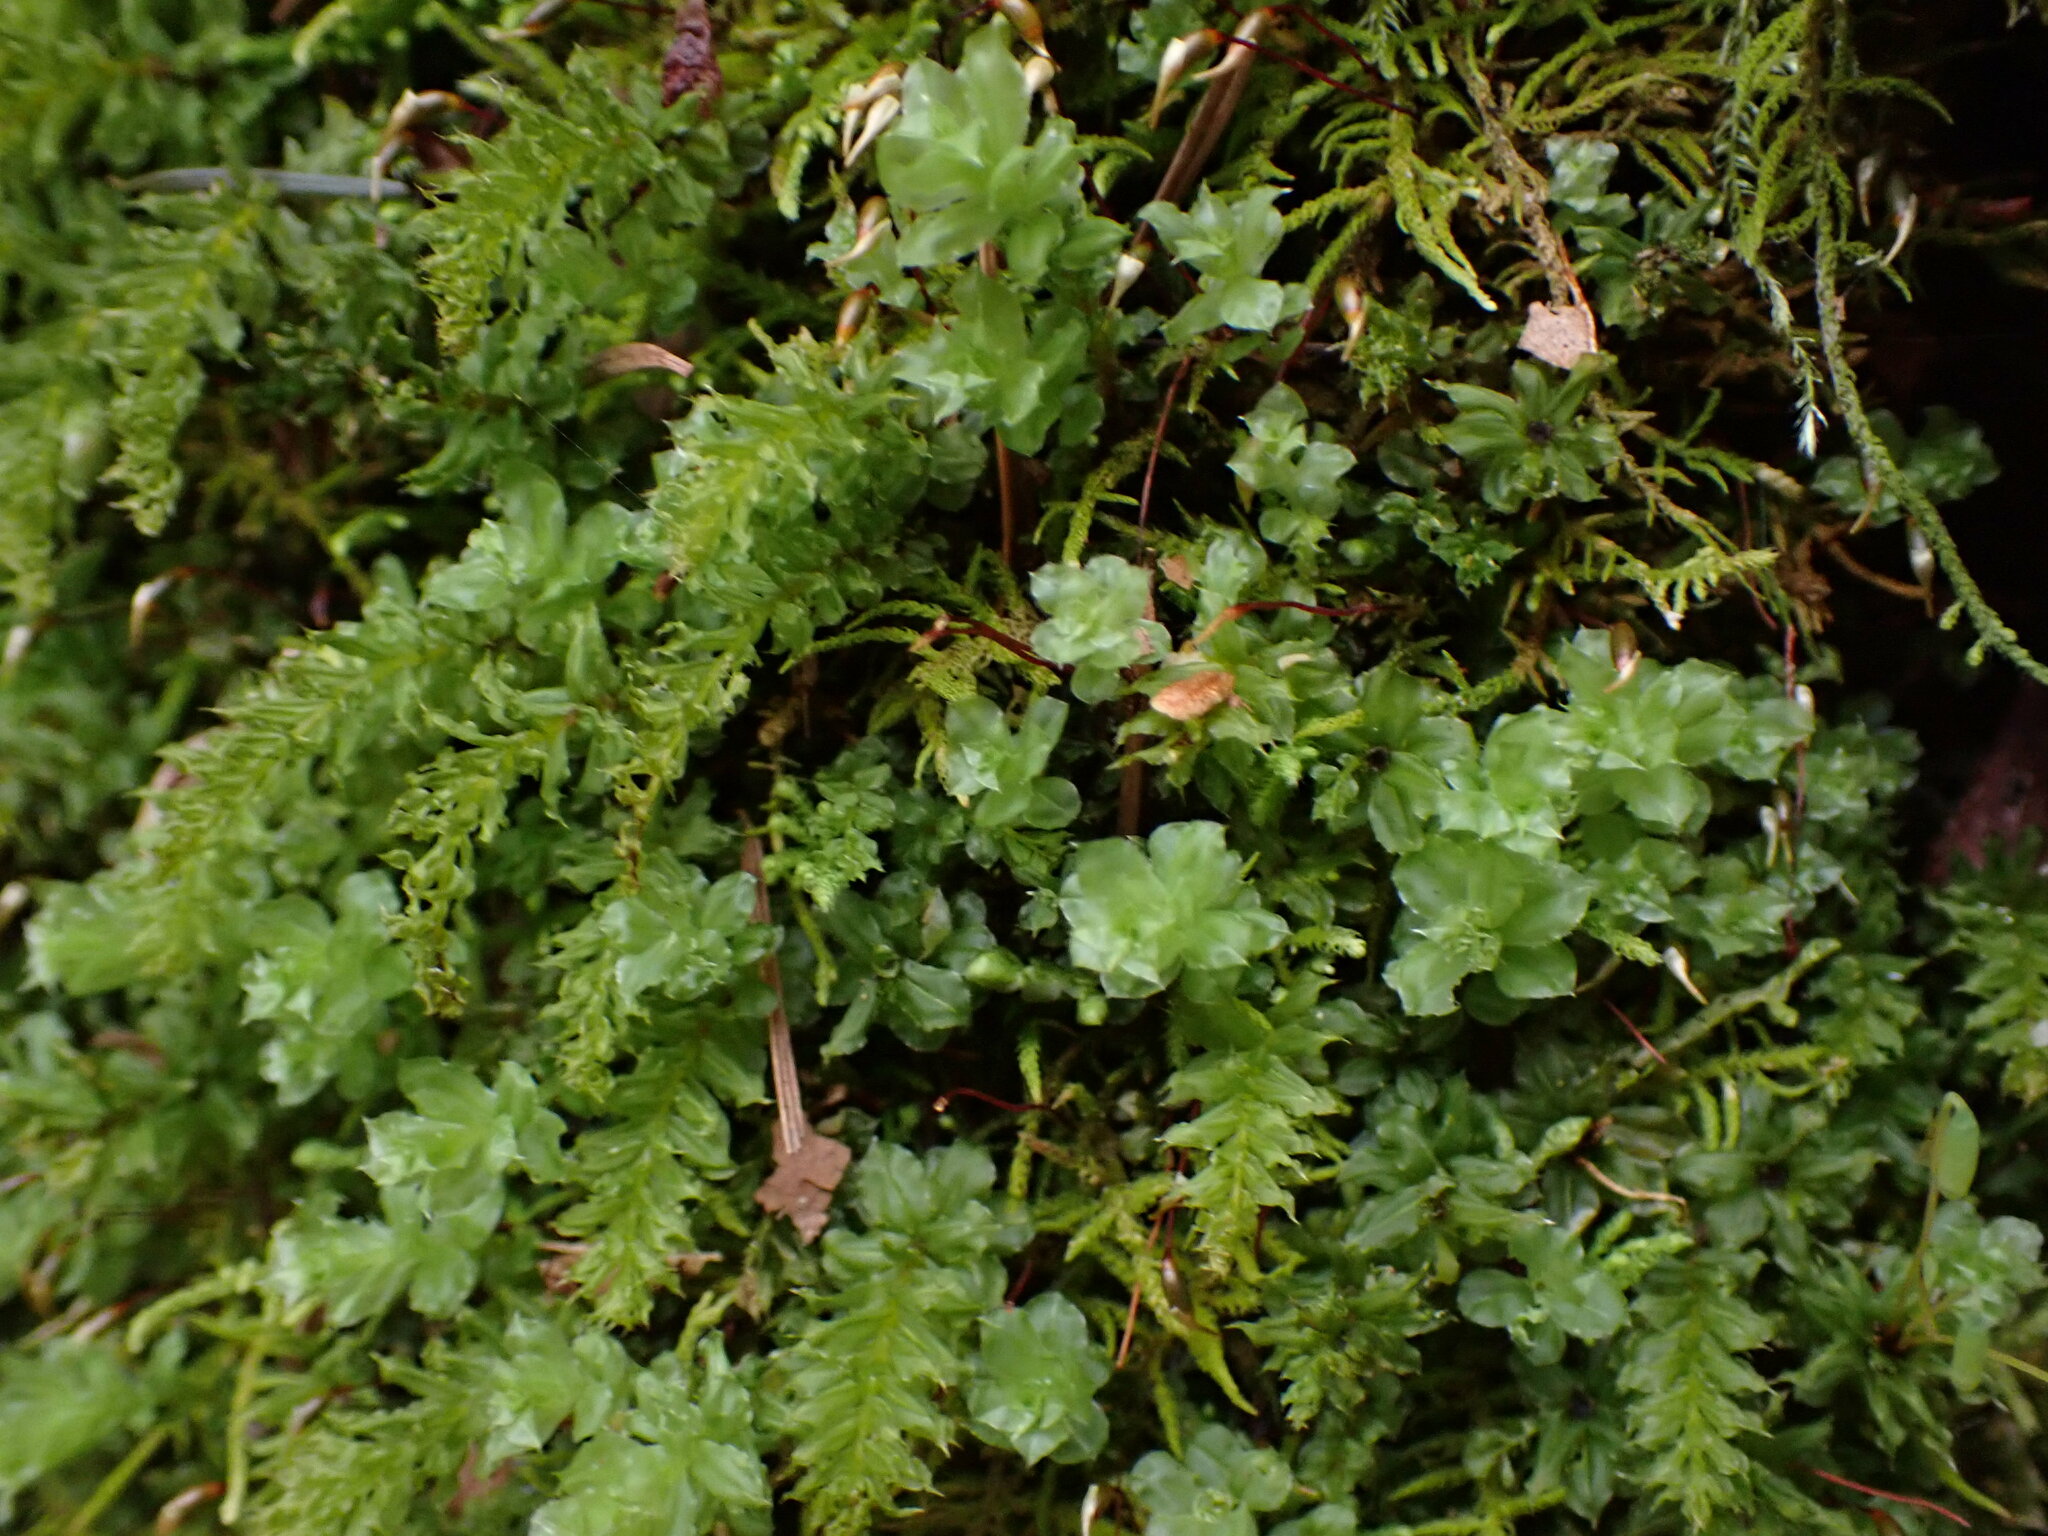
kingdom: Plantae
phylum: Bryophyta
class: Bryopsida
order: Bryales
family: Mniaceae
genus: Plagiomnium
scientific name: Plagiomnium venustum
